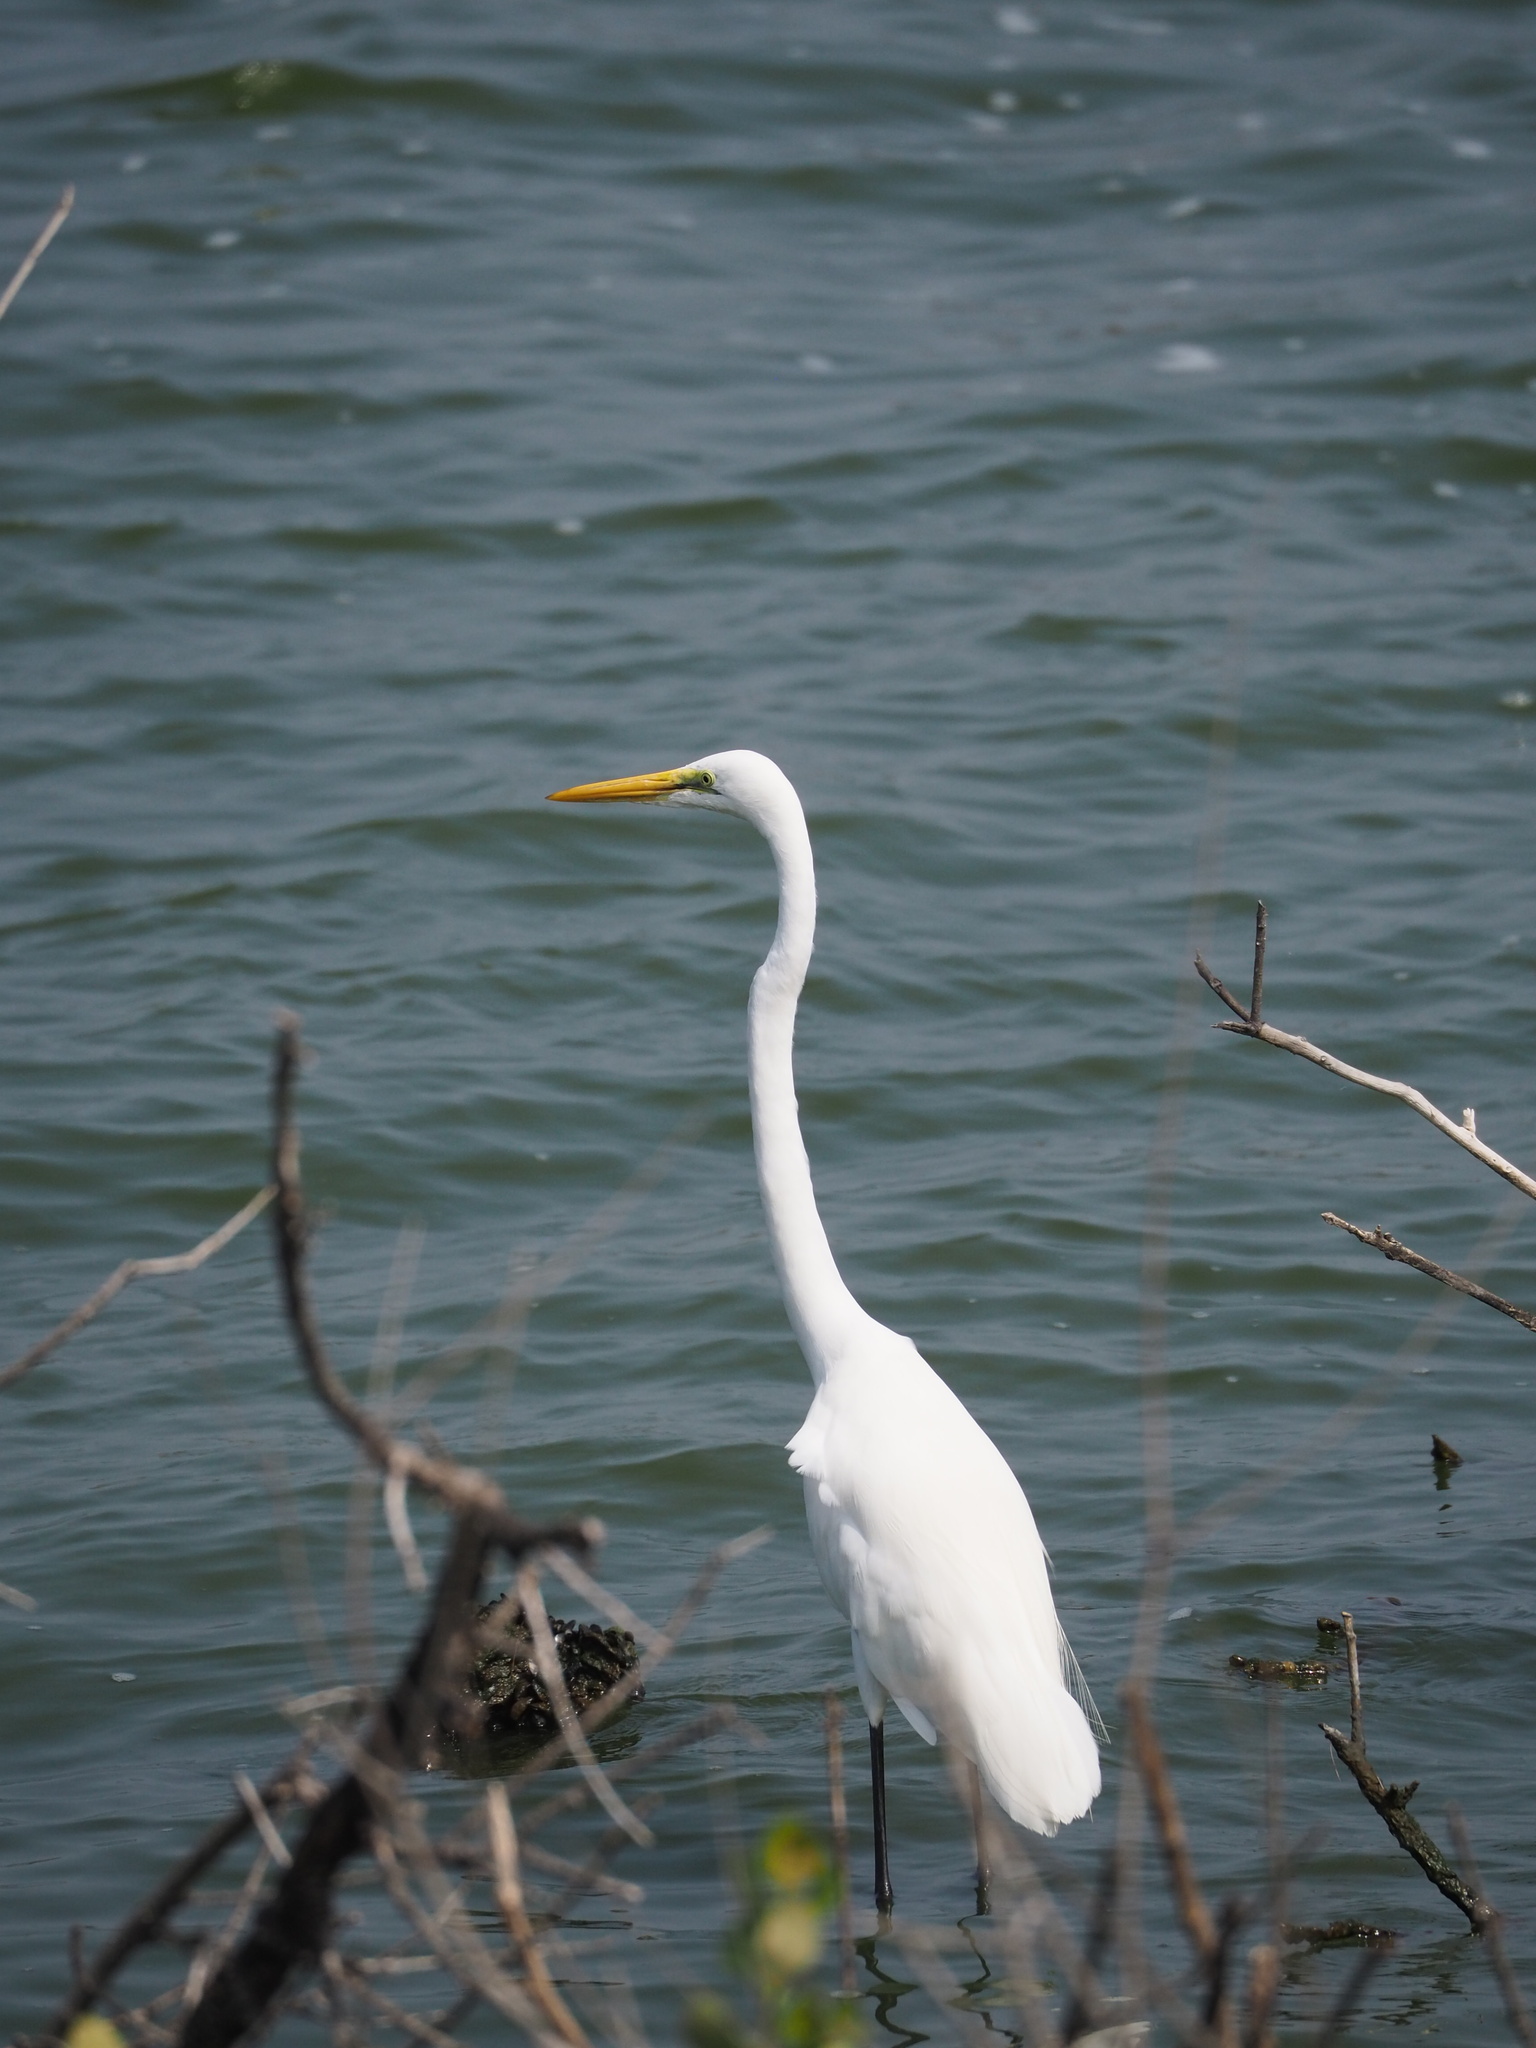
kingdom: Animalia
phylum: Chordata
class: Aves
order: Pelecaniformes
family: Ardeidae
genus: Ardea
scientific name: Ardea alba
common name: Great egret
